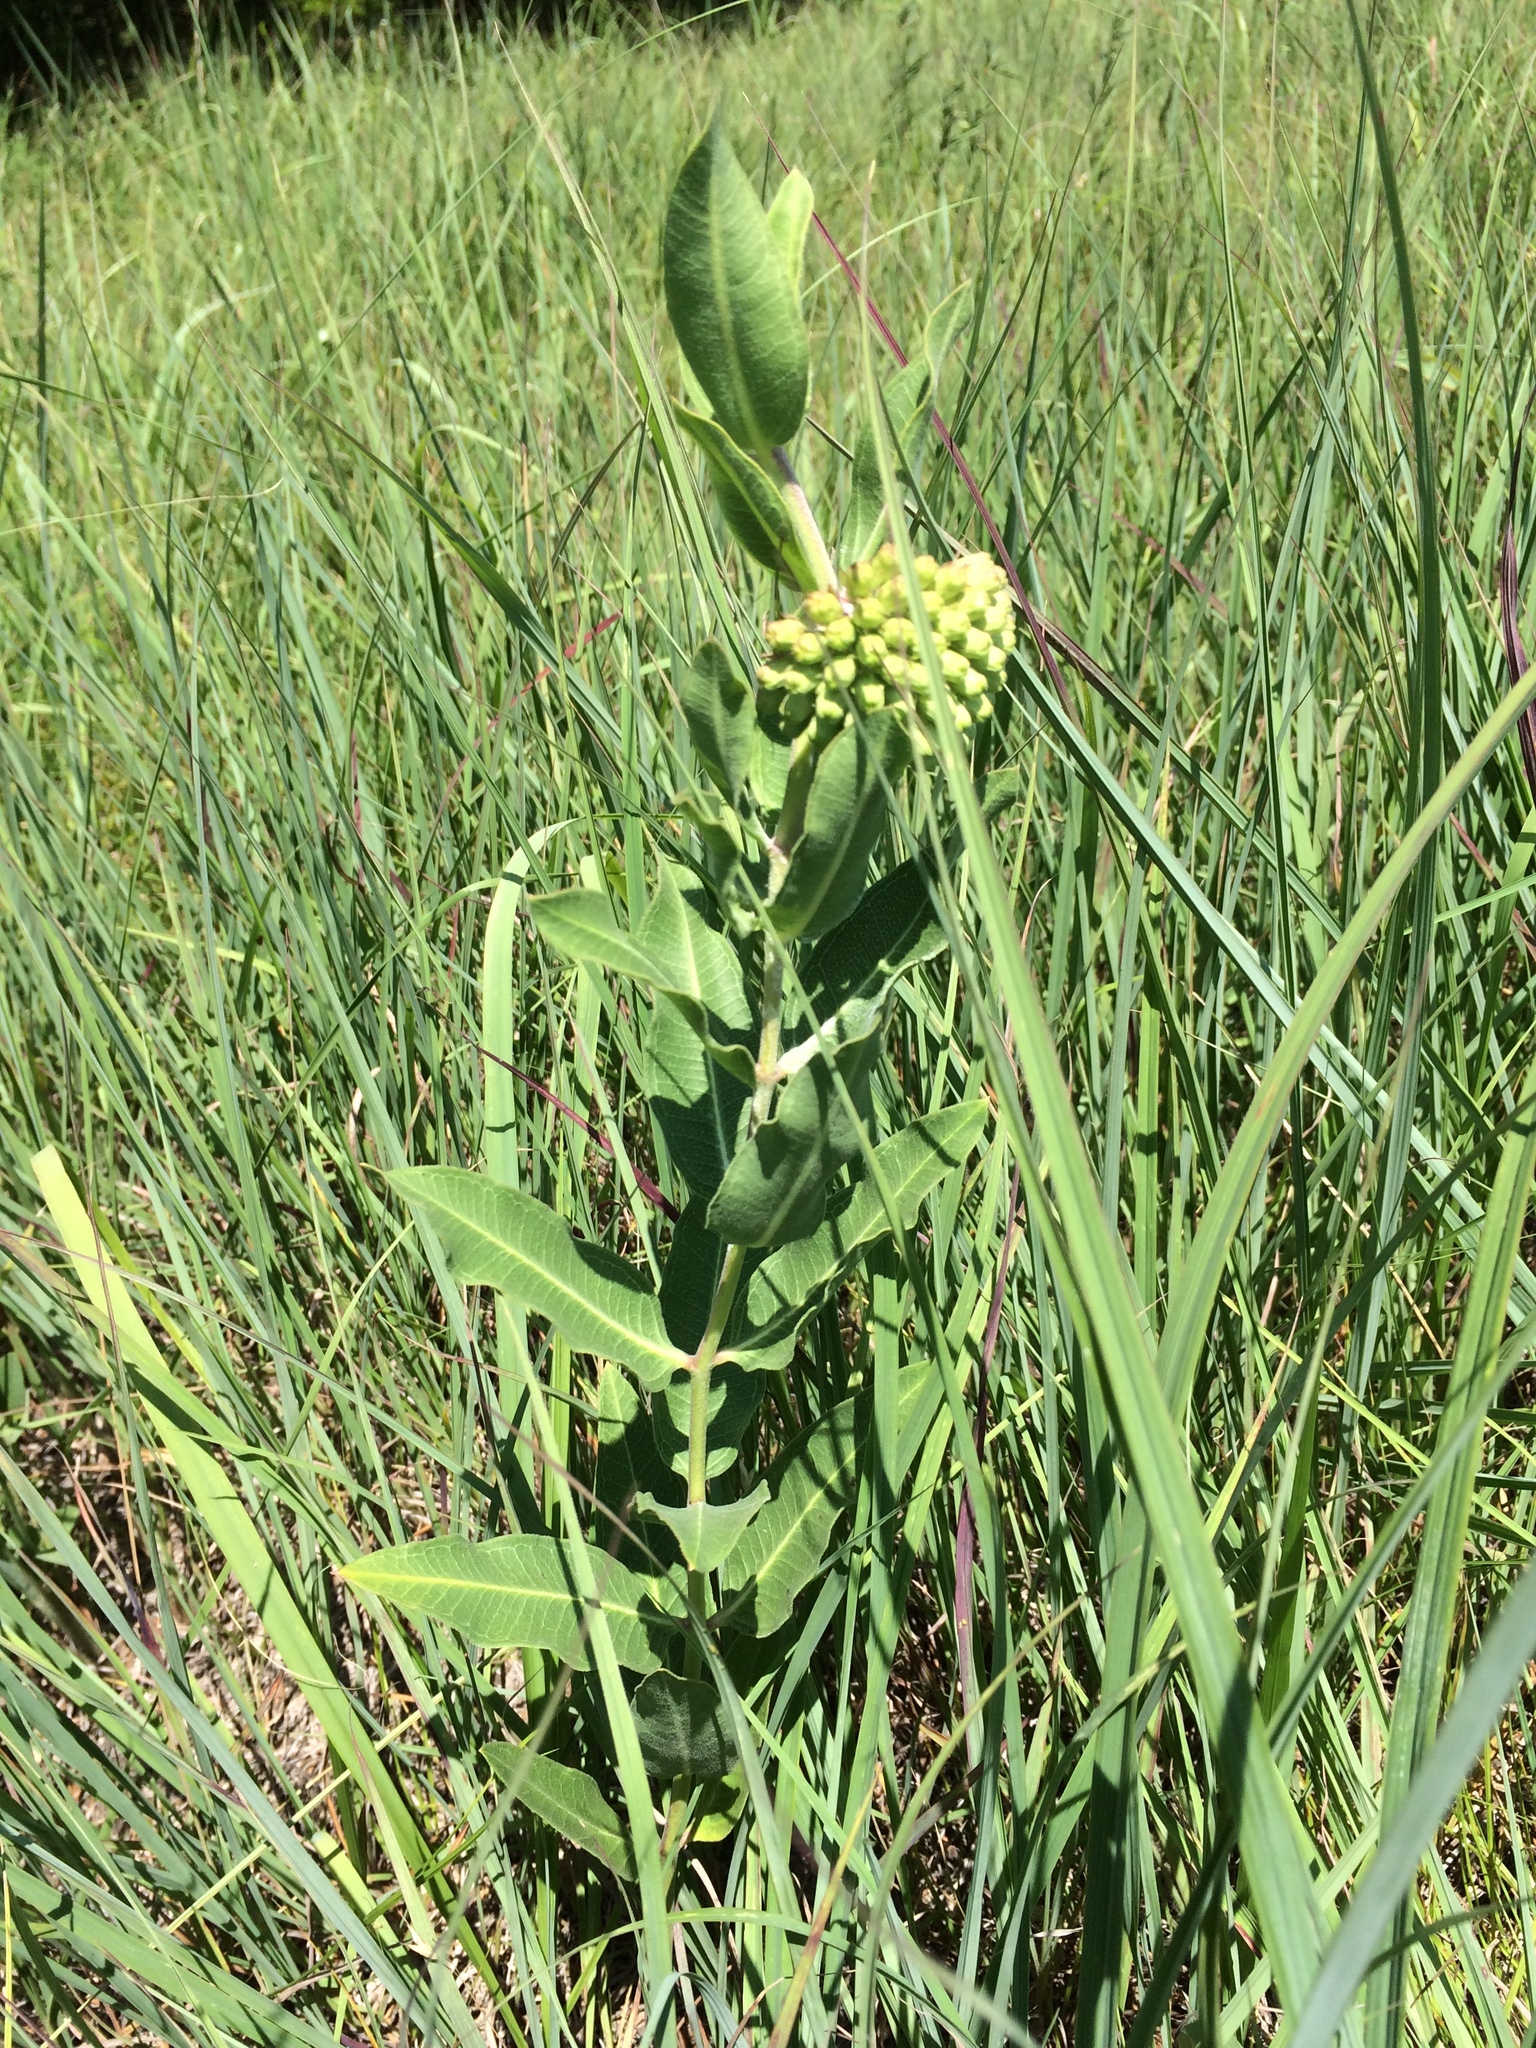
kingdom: Plantae
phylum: Tracheophyta
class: Magnoliopsida
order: Gentianales
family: Apocynaceae
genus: Asclepias
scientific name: Asclepias viridiflora
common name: Green comet milkweed
